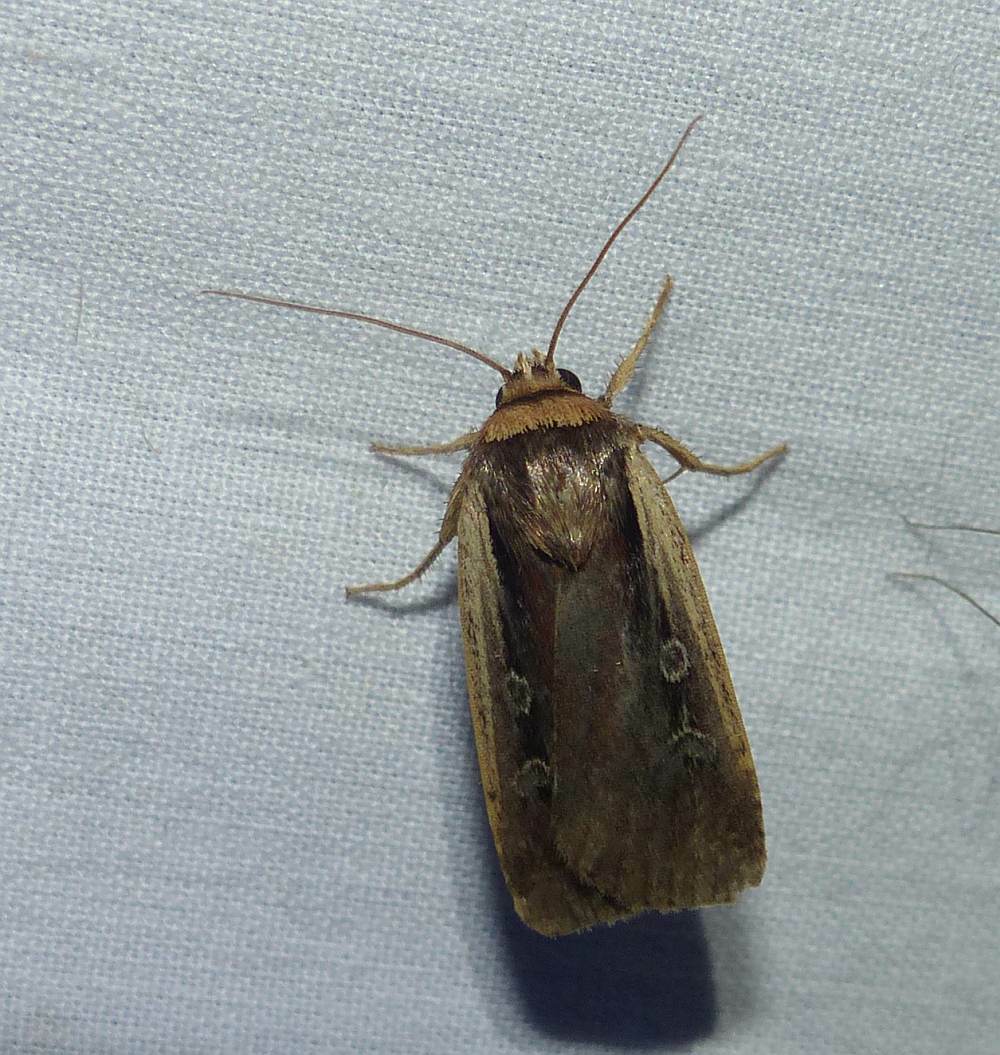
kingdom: Animalia
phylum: Arthropoda
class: Insecta
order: Lepidoptera
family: Noctuidae
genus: Ochropleura
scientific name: Ochropleura implecta
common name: Flame-shouldered dart
